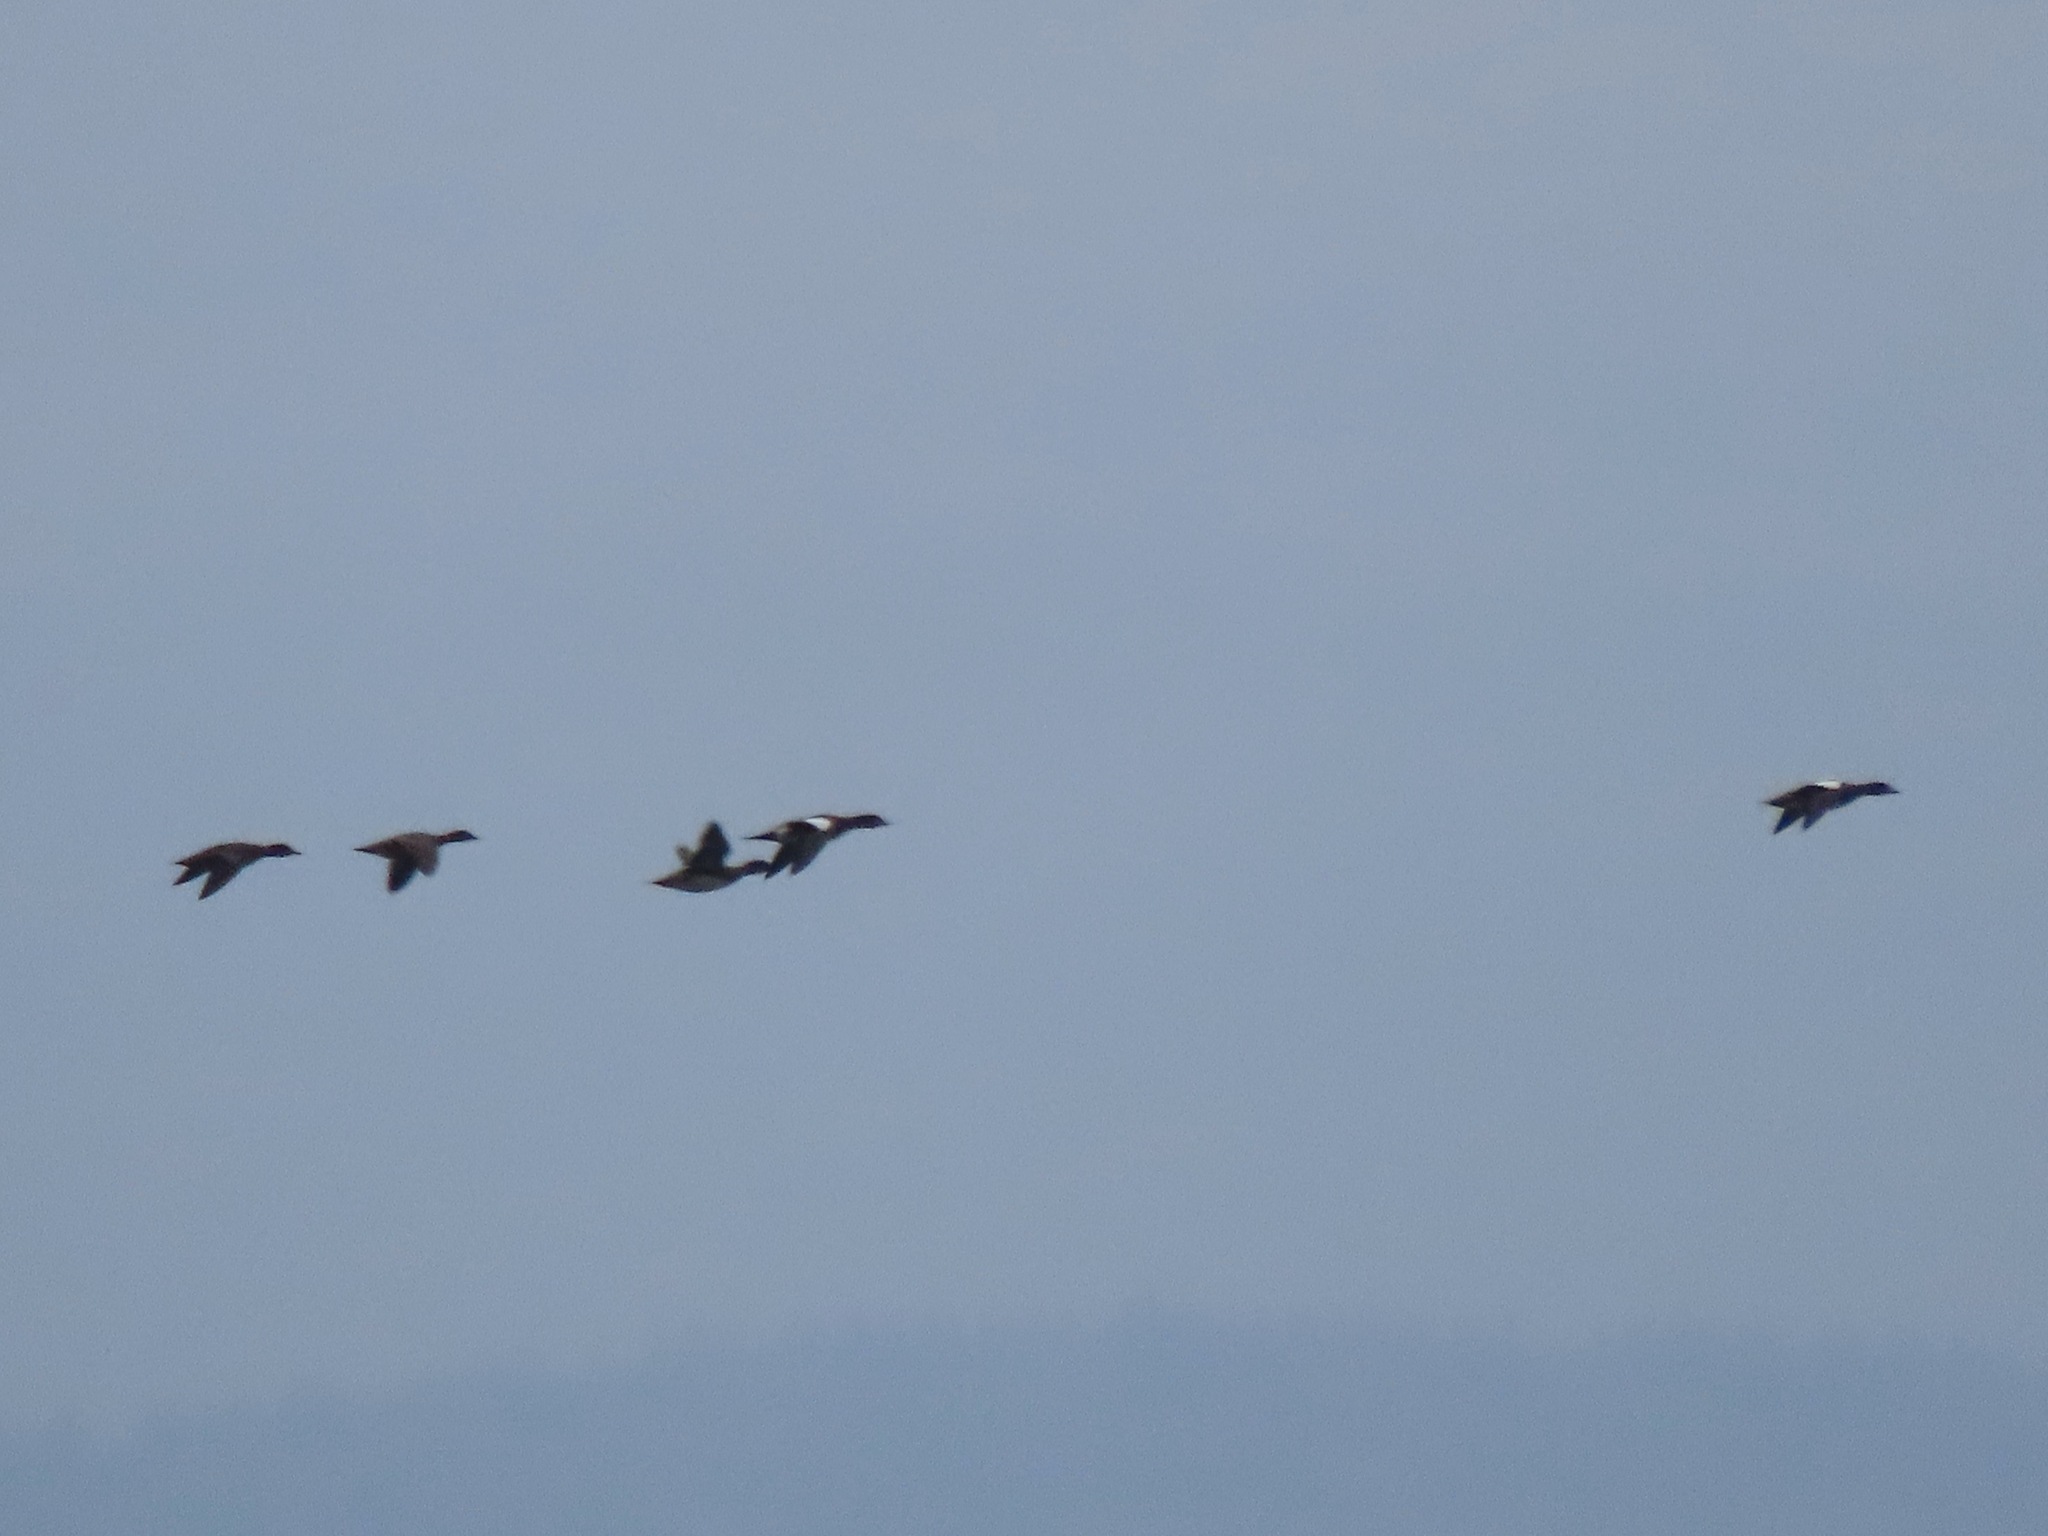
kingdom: Animalia
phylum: Chordata
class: Aves
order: Anseriformes
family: Anatidae
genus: Mareca
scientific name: Mareca americana
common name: American wigeon
